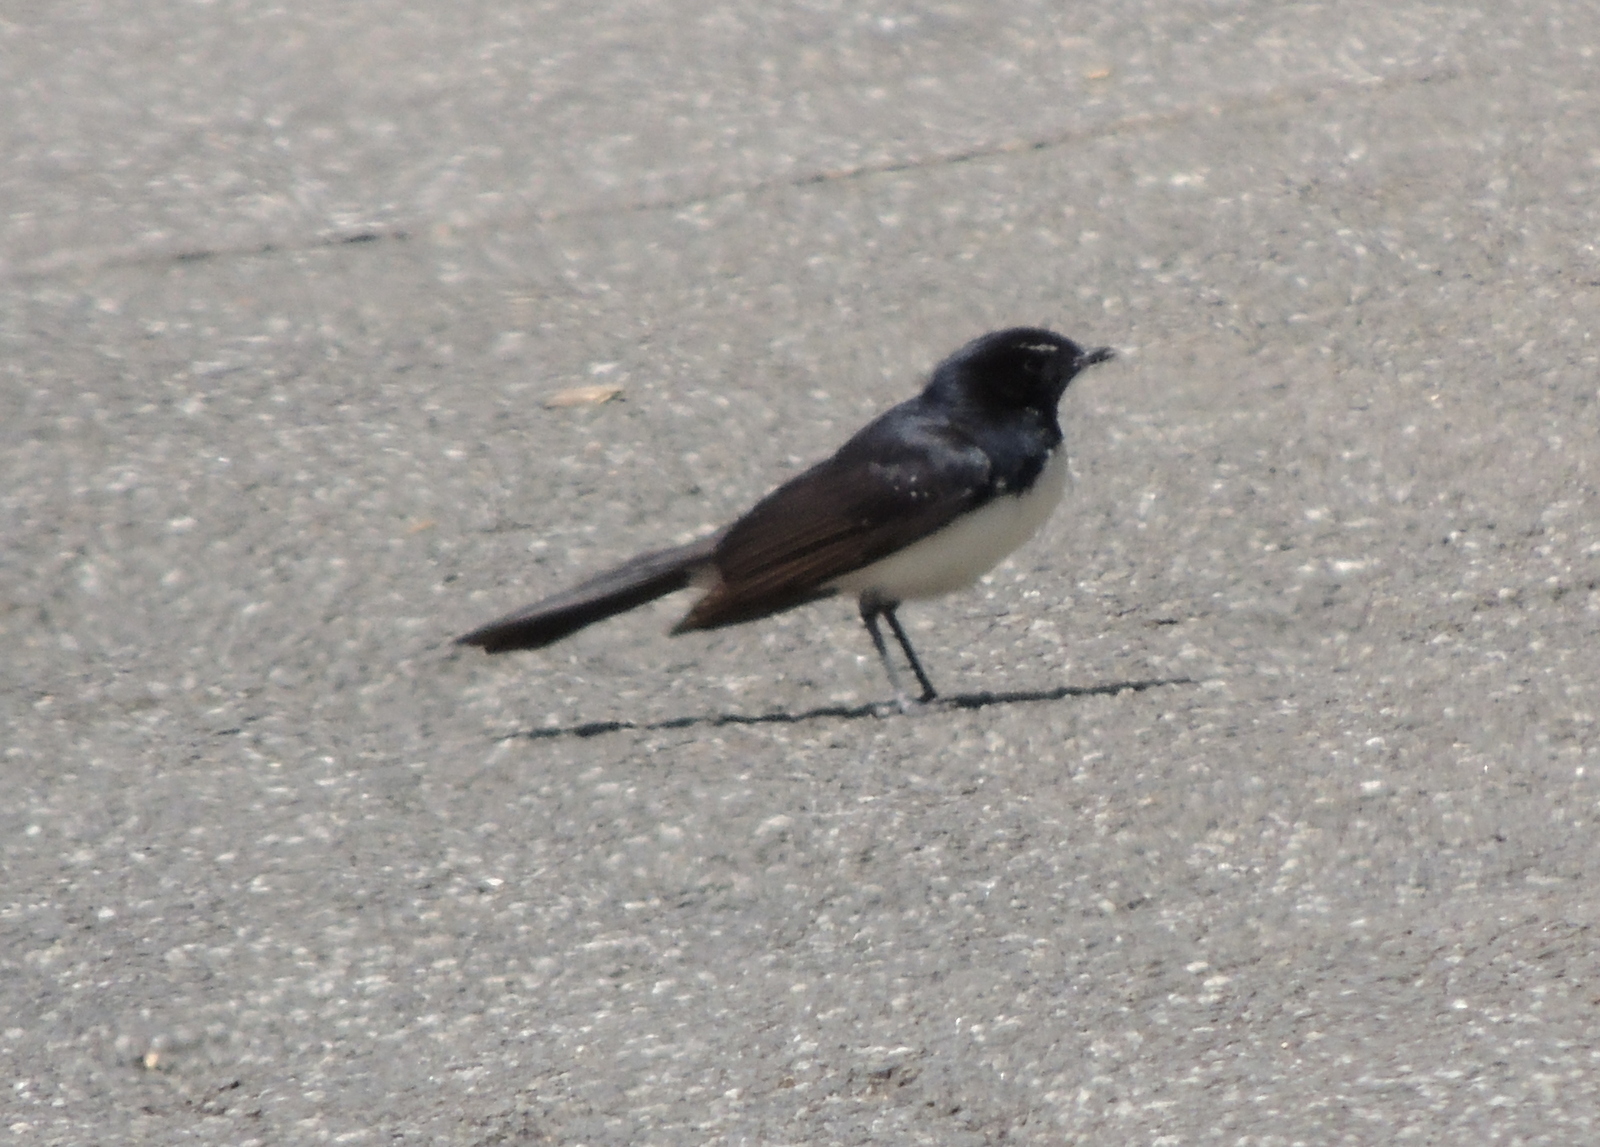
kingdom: Animalia
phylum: Chordata
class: Aves
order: Passeriformes
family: Rhipiduridae
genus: Rhipidura
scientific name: Rhipidura leucophrys
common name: Willie wagtail
